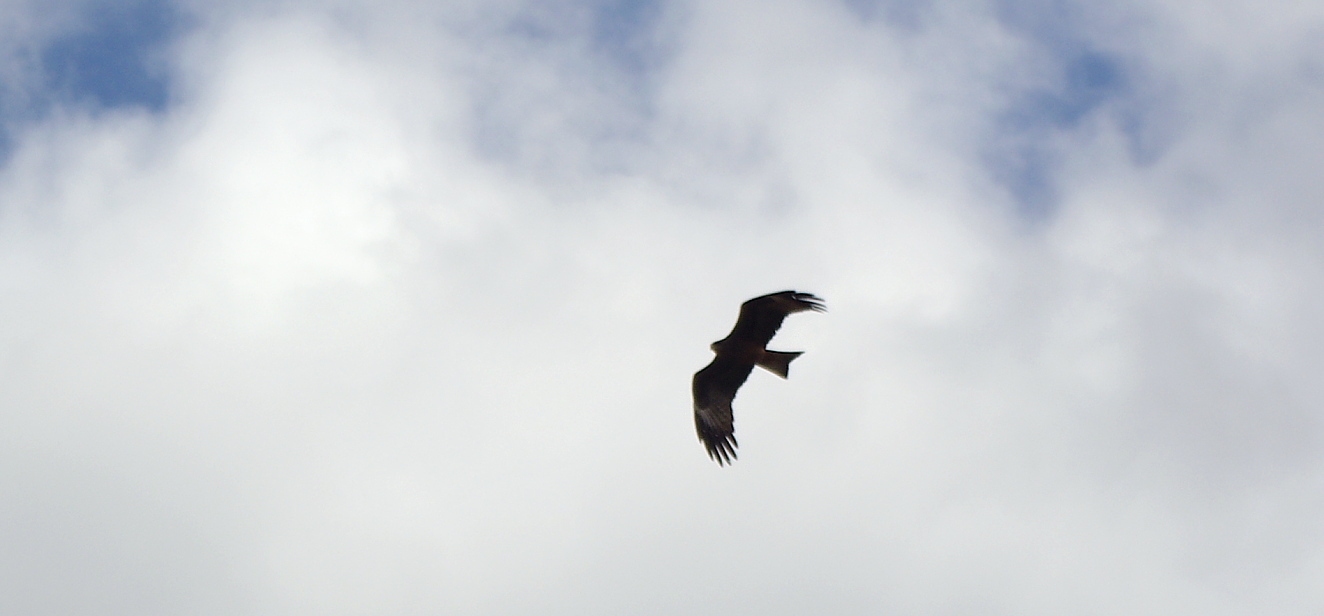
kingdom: Animalia
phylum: Chordata
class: Aves
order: Accipitriformes
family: Accipitridae
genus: Milvus
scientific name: Milvus migrans
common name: Black kite
